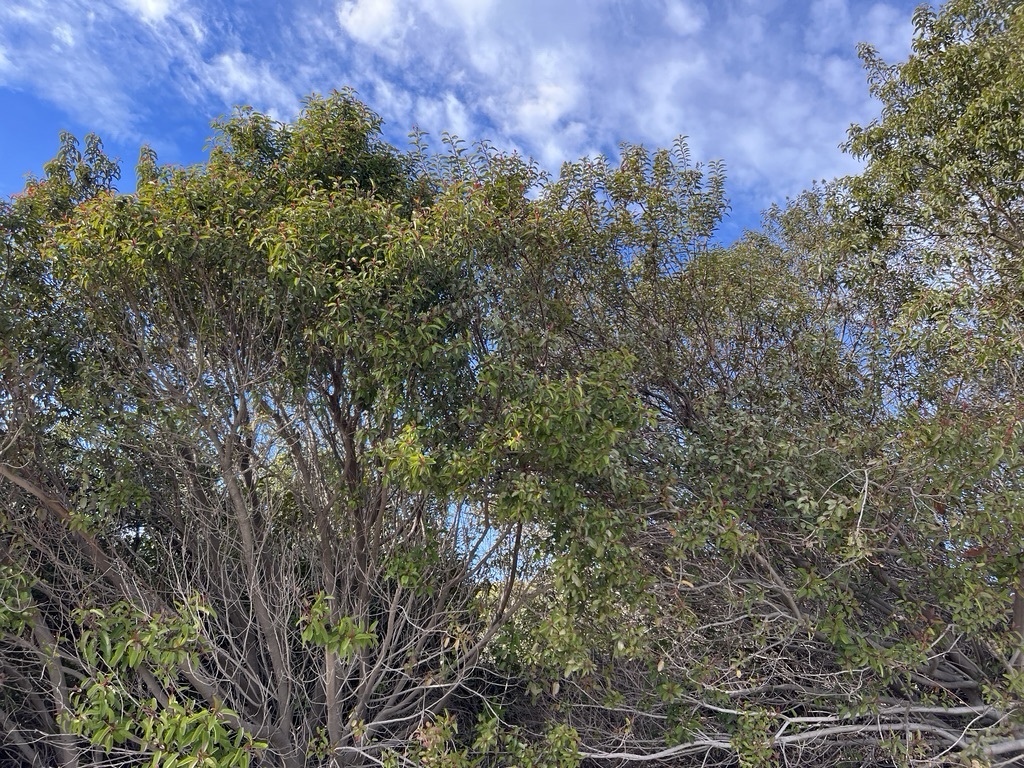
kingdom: Plantae
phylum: Tracheophyta
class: Magnoliopsida
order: Sapindales
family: Anacardiaceae
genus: Malosma
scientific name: Malosma laurina
